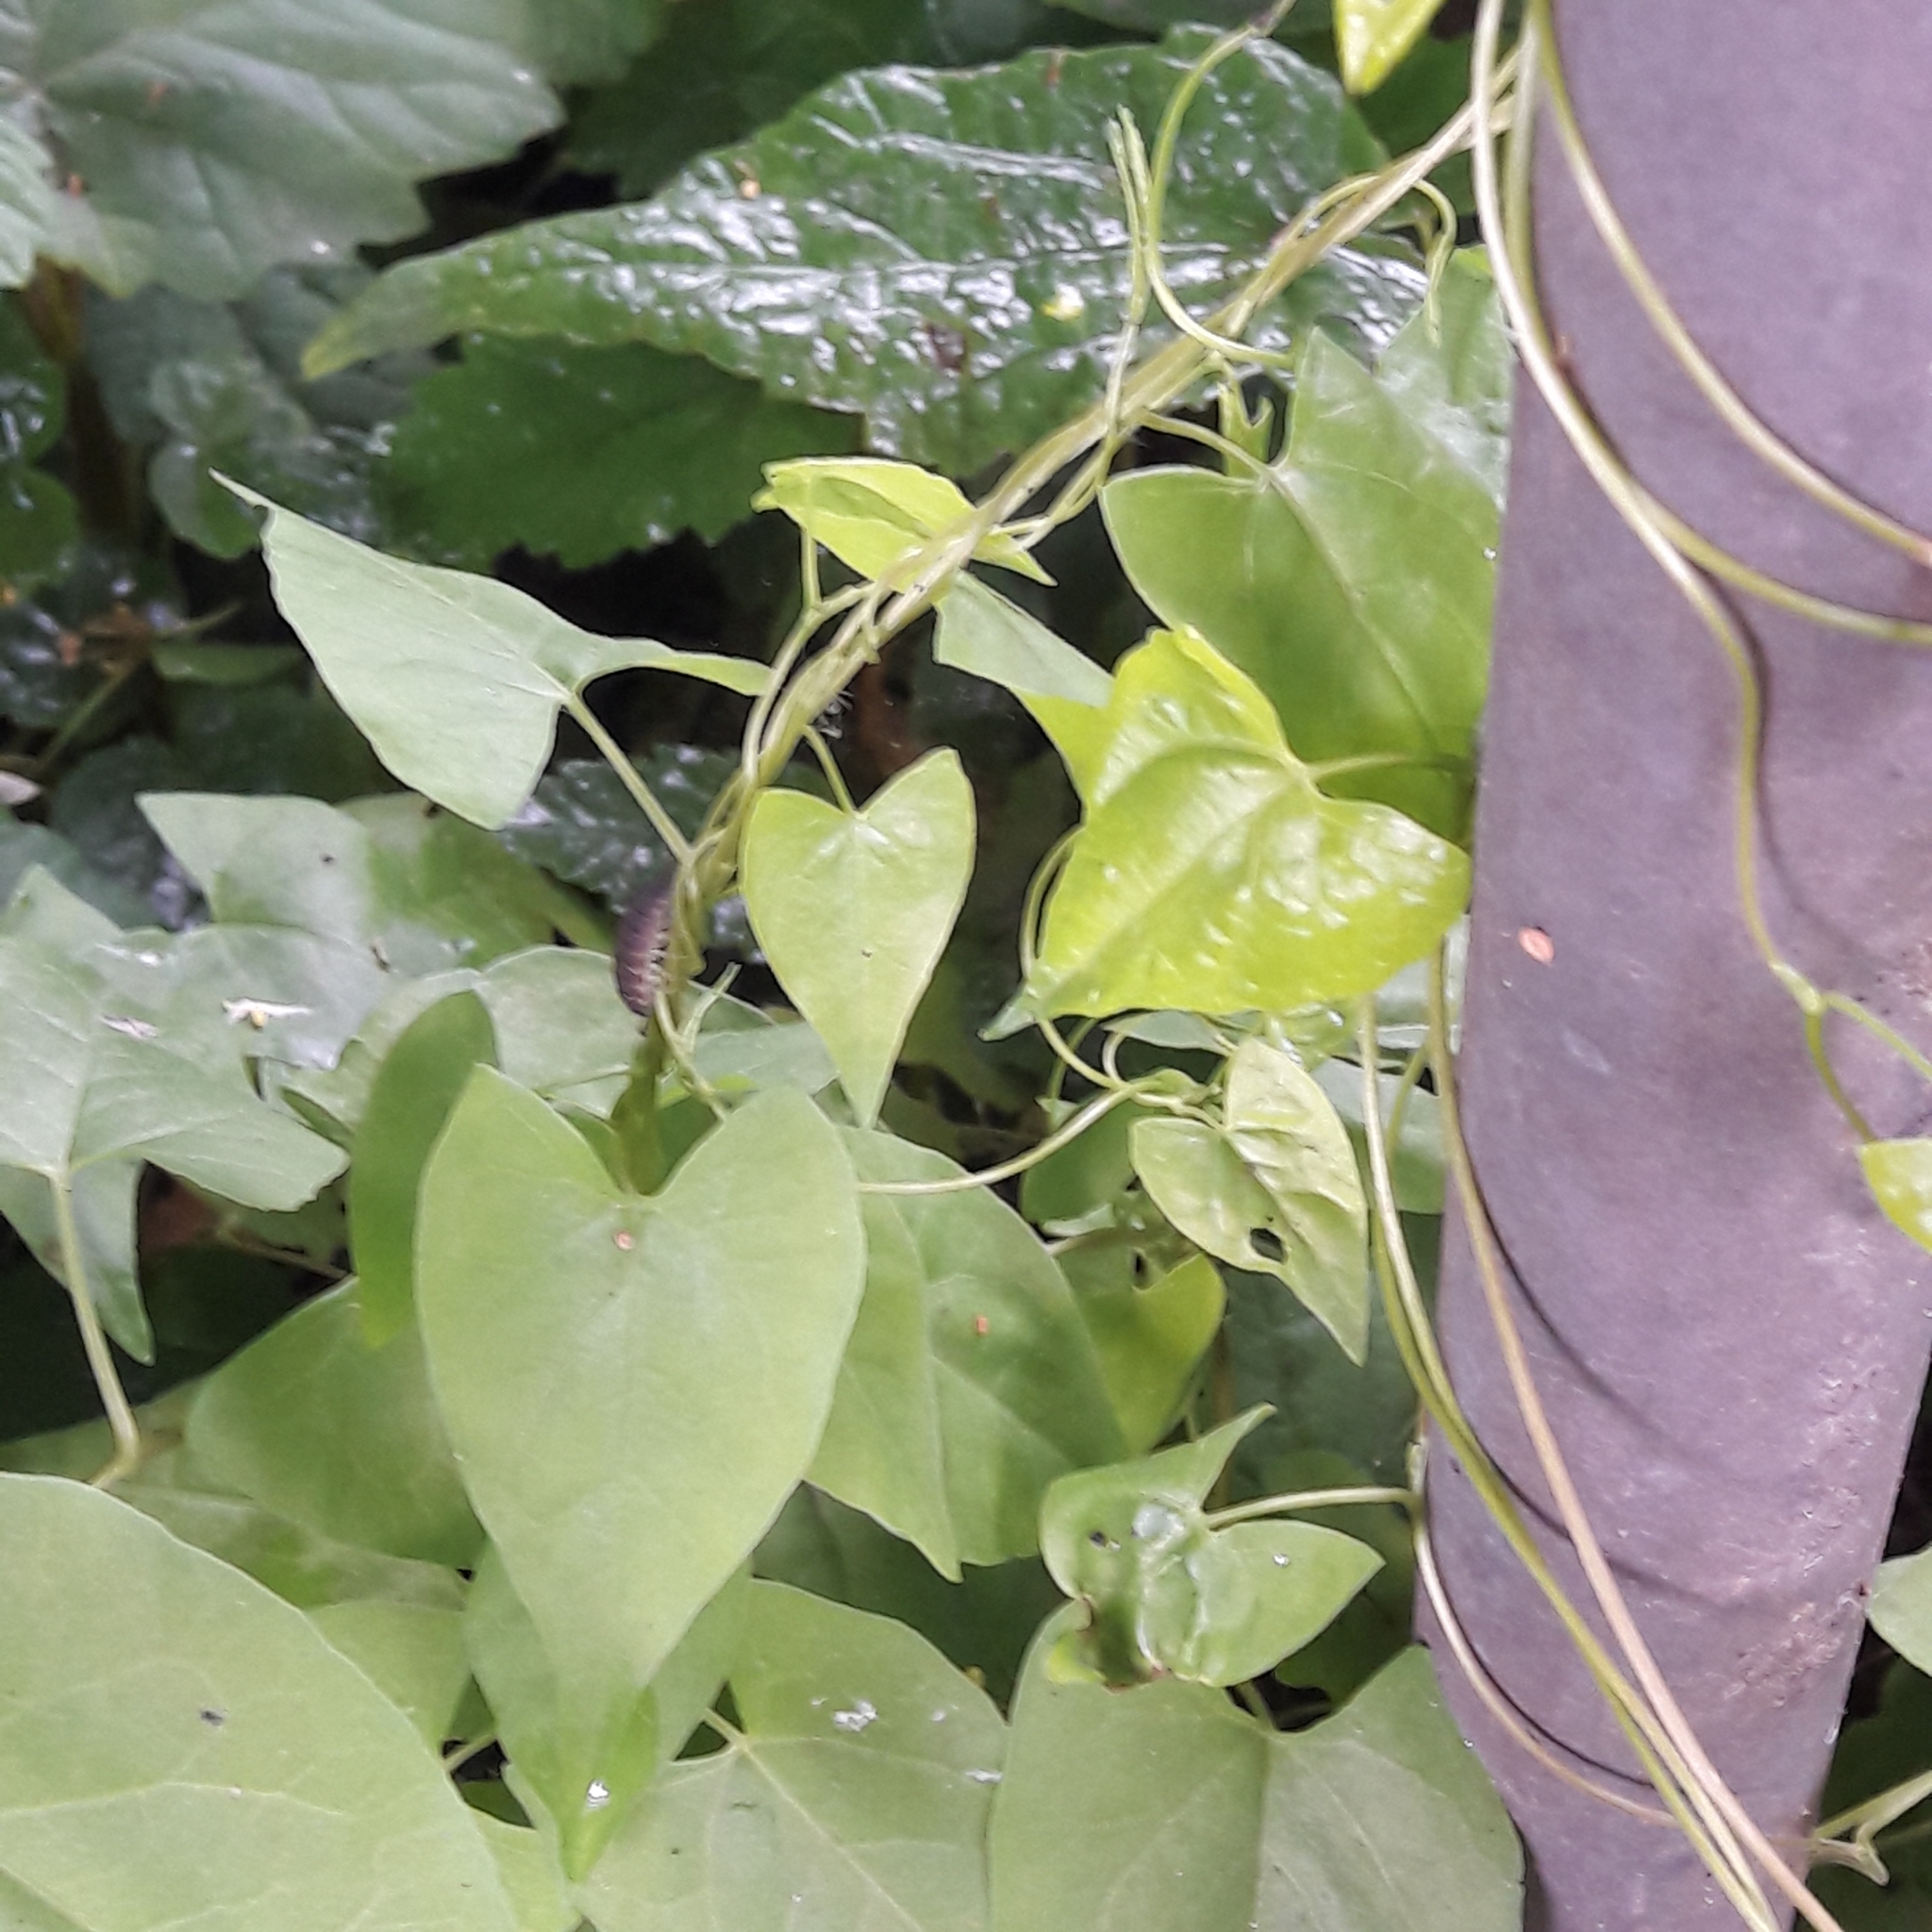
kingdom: Plantae
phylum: Tracheophyta
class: Magnoliopsida
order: Solanales
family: Convolvulaceae
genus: Calystegia
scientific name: Calystegia sepium
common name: Hedge bindweed
